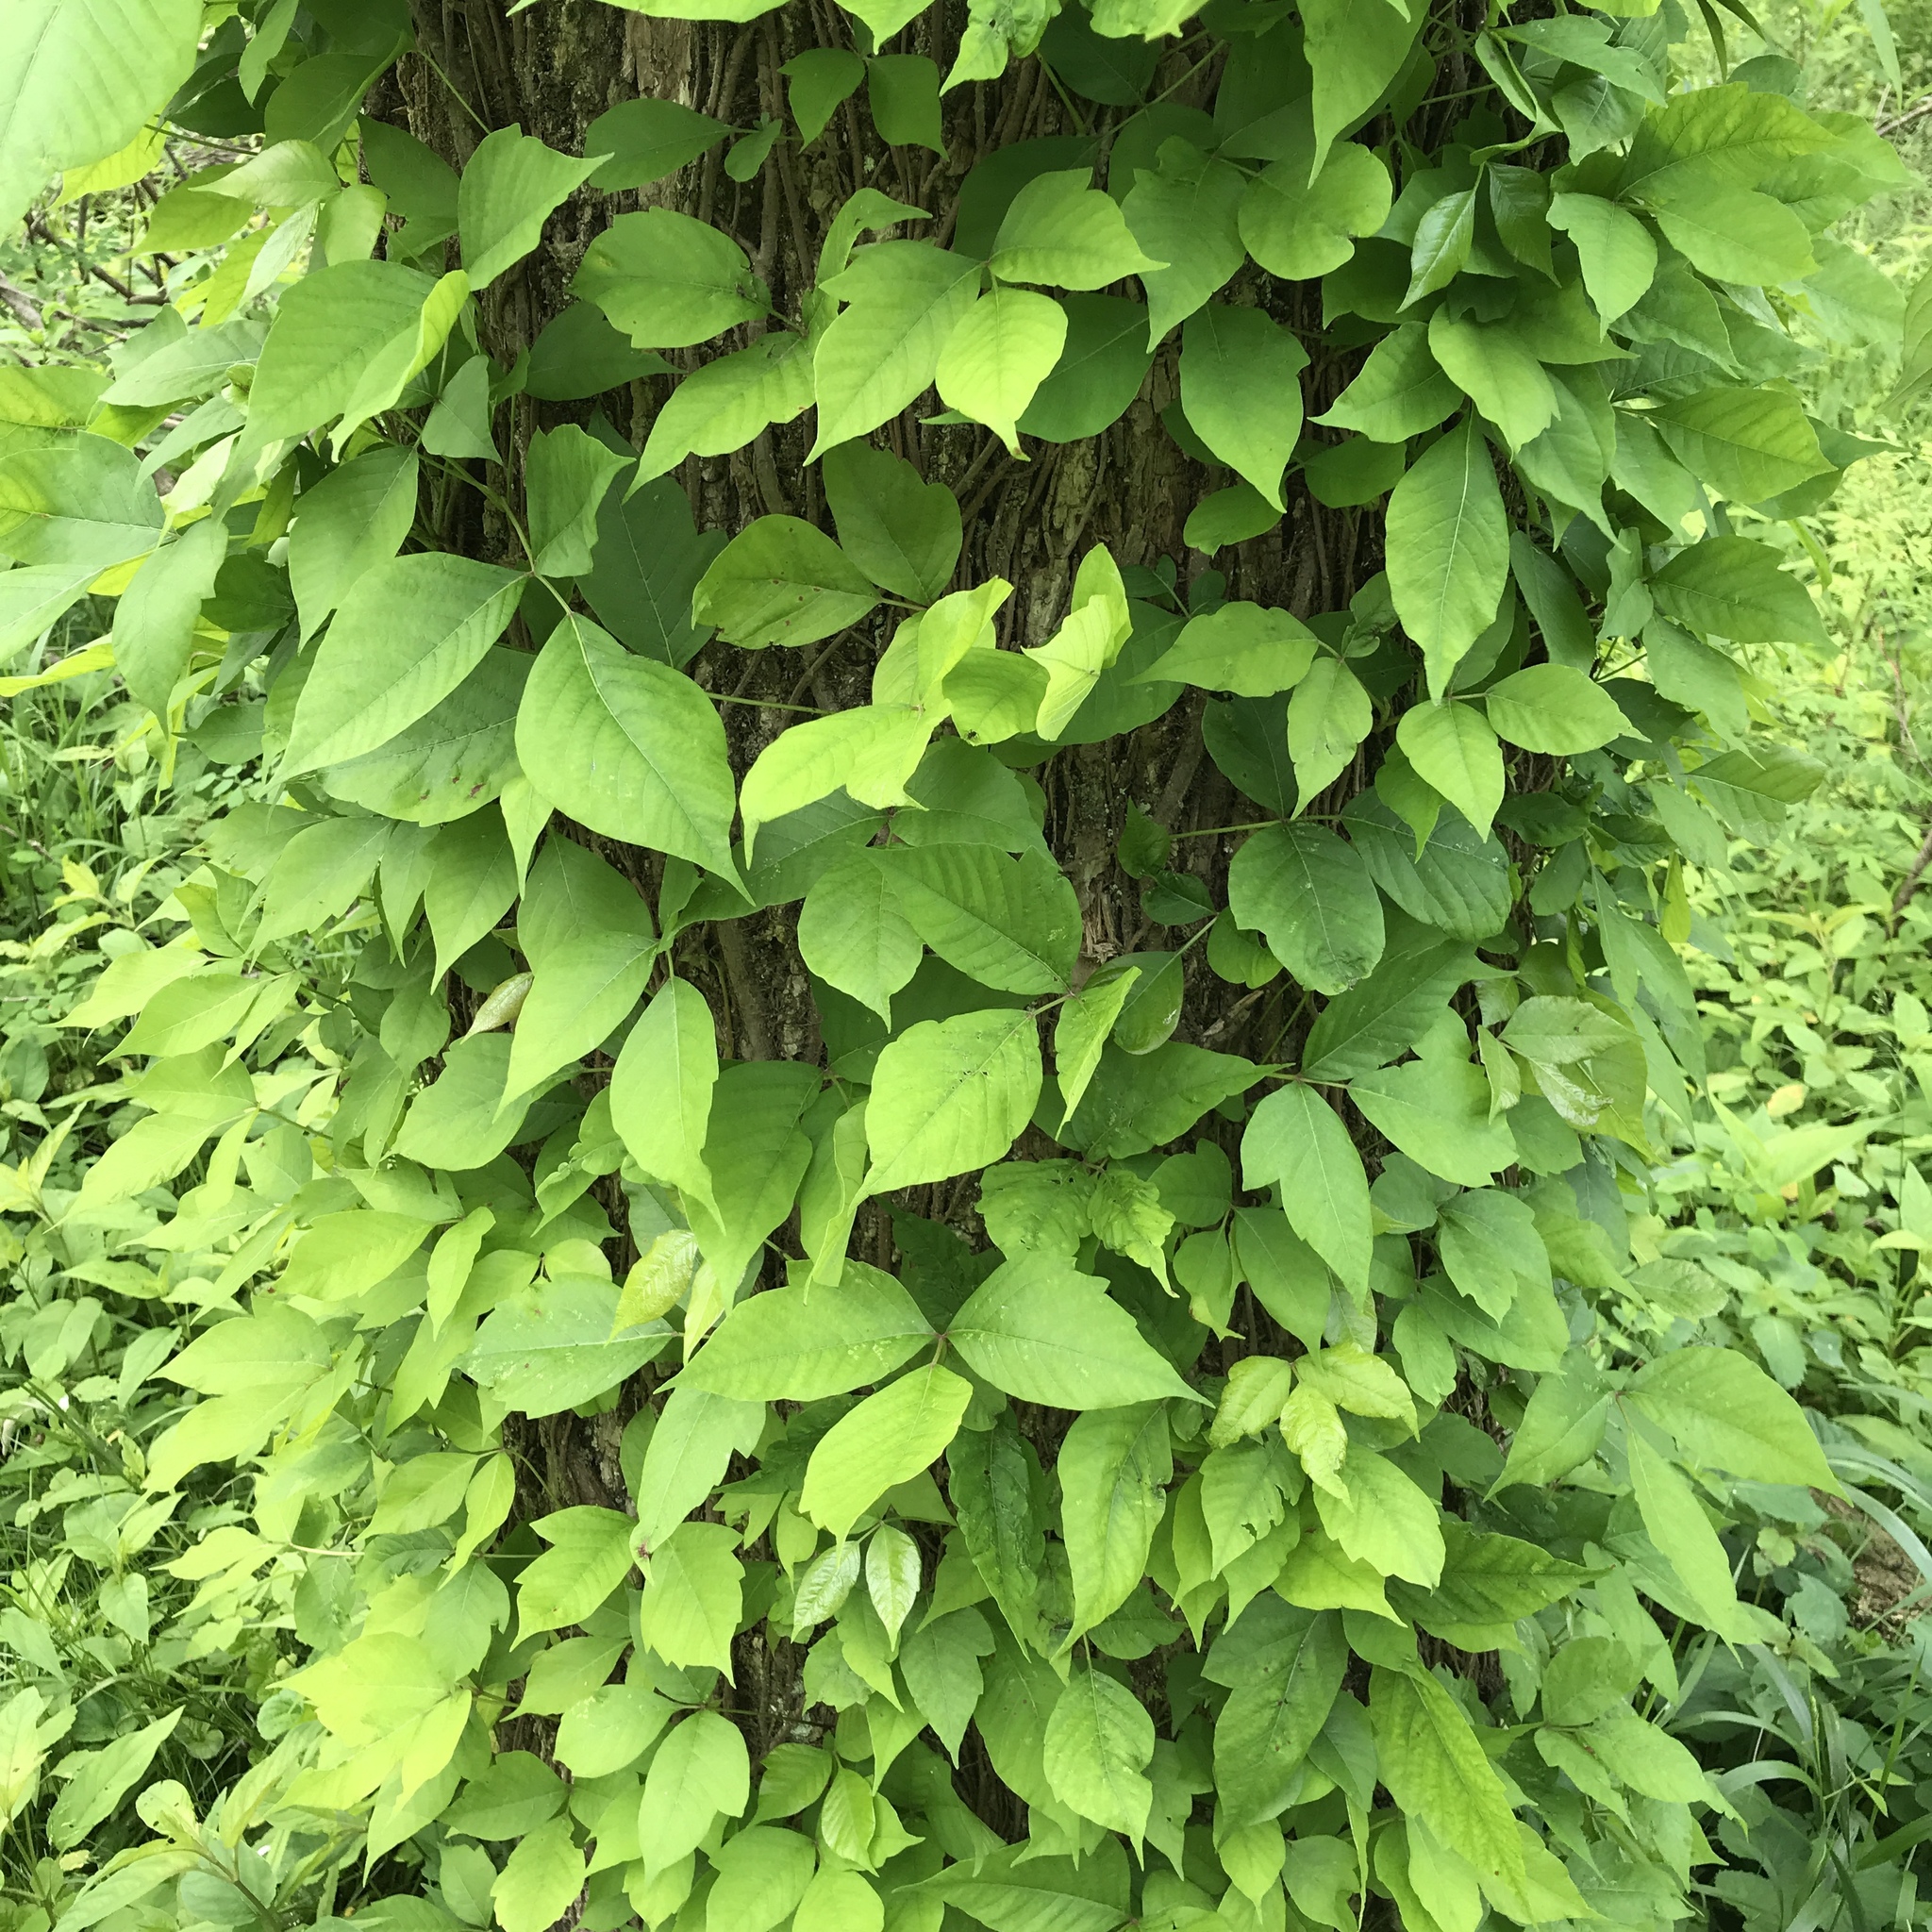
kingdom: Plantae
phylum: Tracheophyta
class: Magnoliopsida
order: Sapindales
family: Anacardiaceae
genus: Toxicodendron
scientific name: Toxicodendron radicans
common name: Poison ivy
